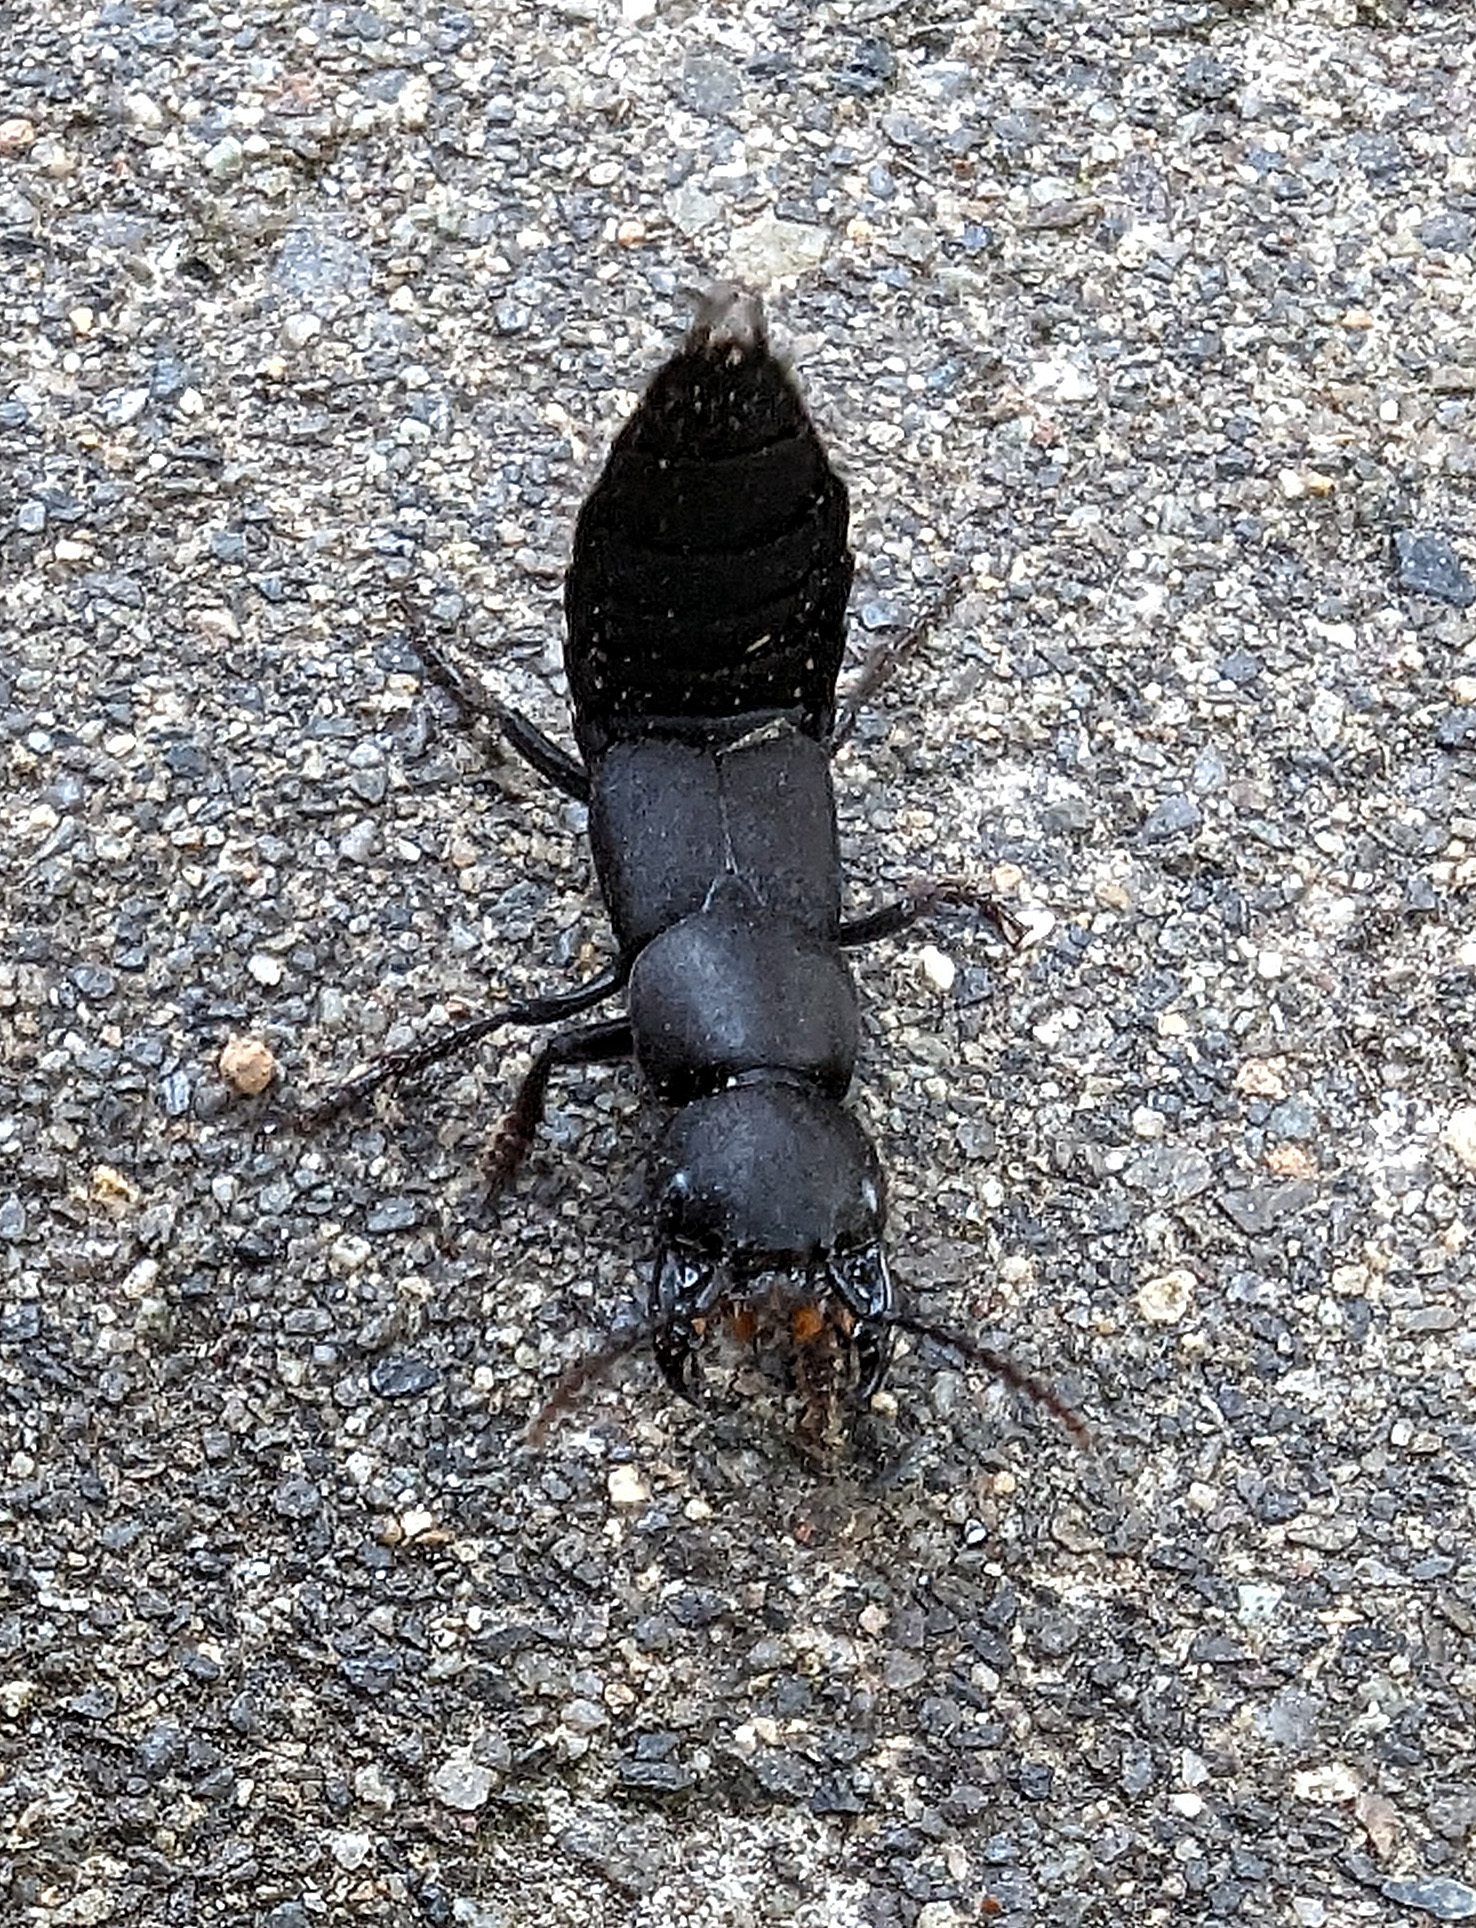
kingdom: Animalia
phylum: Arthropoda
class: Insecta
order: Coleoptera
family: Staphylinidae
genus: Ocypus
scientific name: Ocypus olens
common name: Devil's coach-horse
